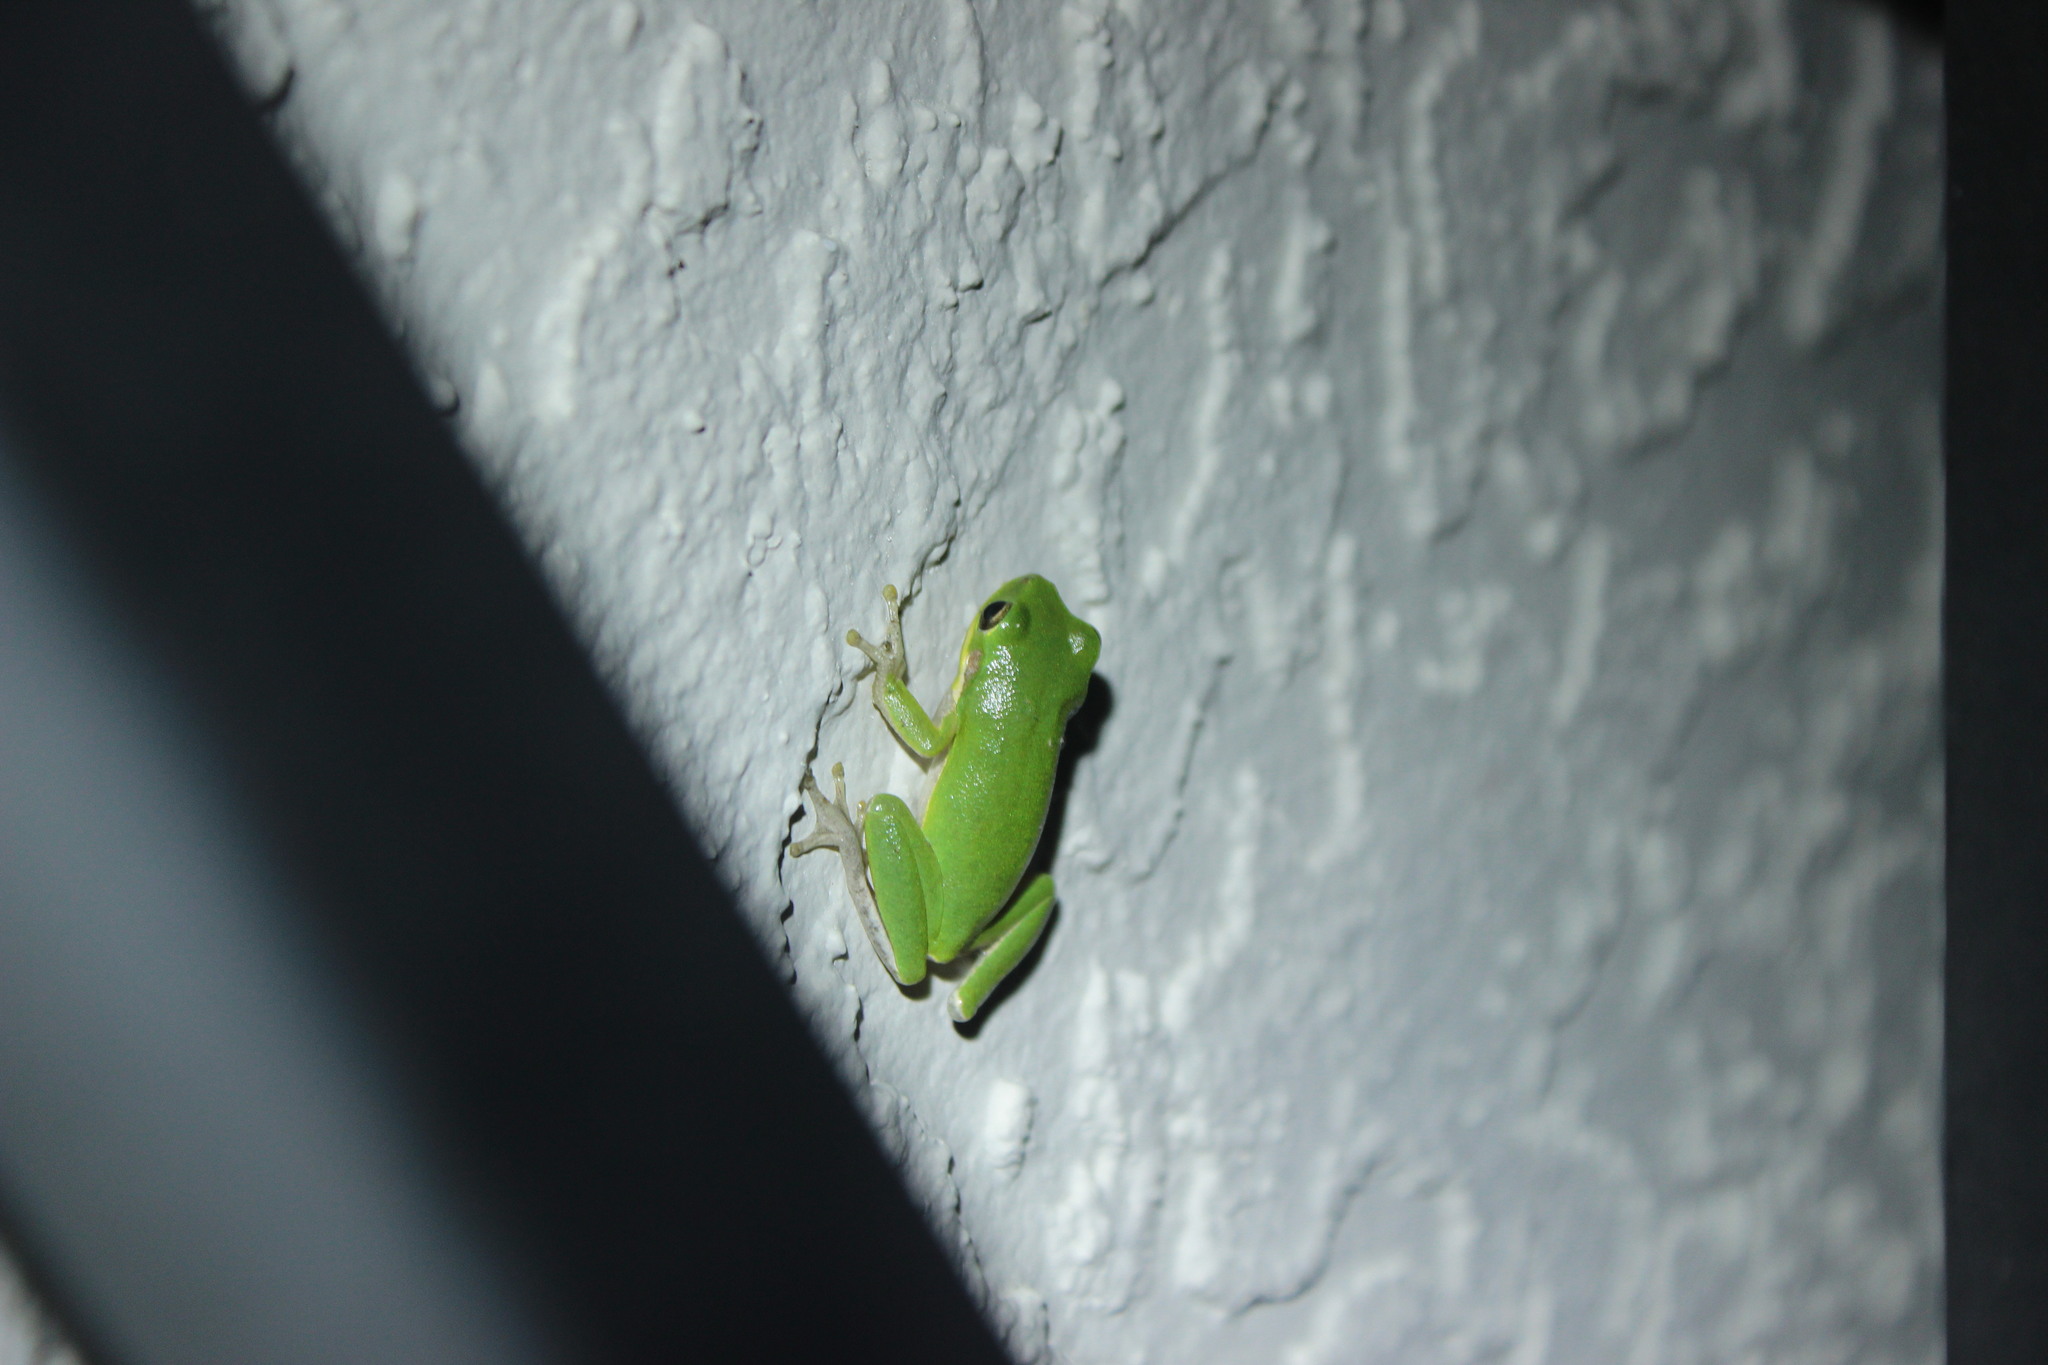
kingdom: Animalia
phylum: Chordata
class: Amphibia
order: Anura
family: Hylidae
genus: Dryophytes
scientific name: Dryophytes squirellus
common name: Squirrel treefrog
